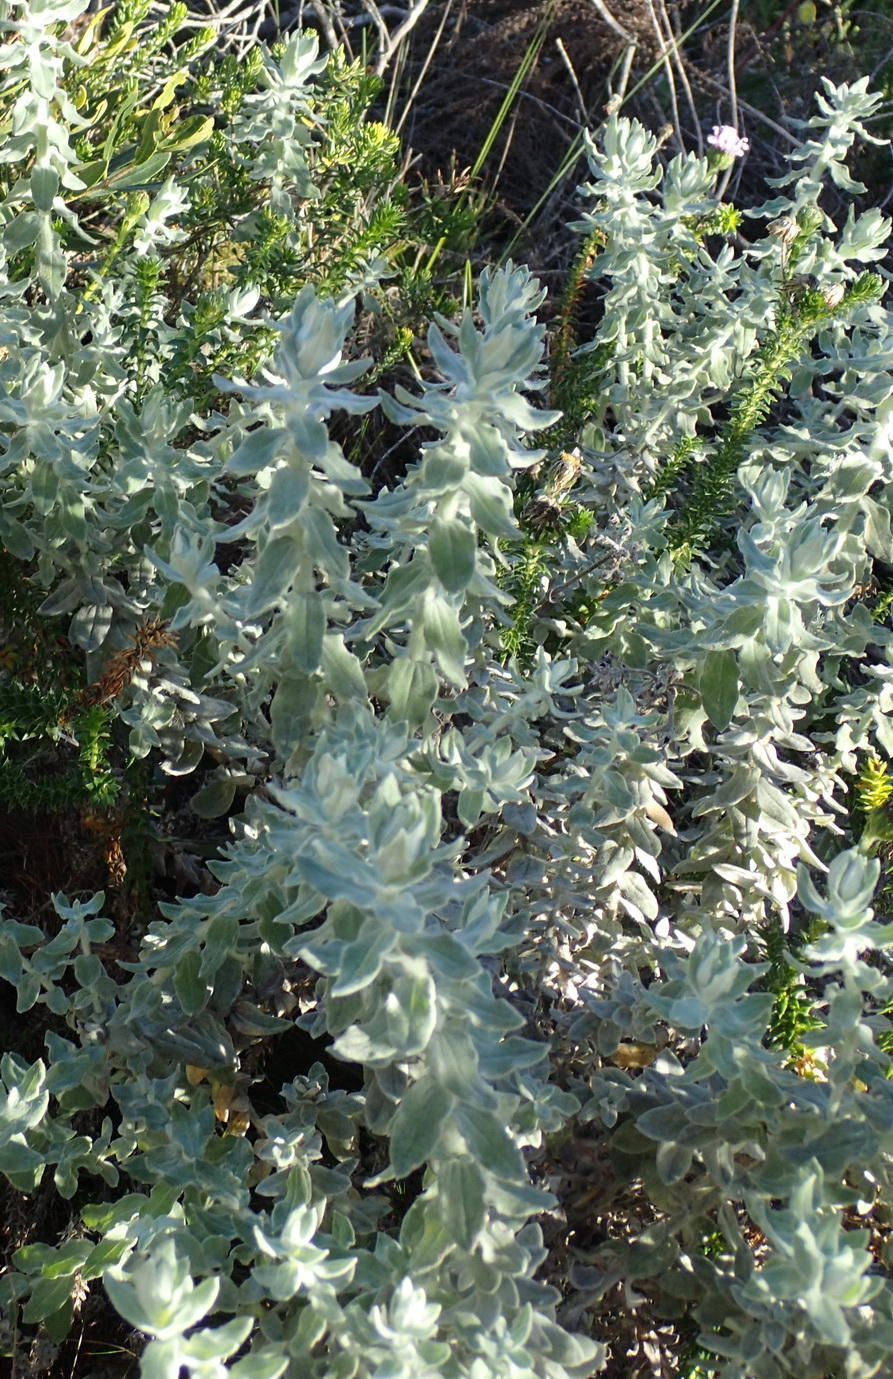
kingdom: Plantae
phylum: Tracheophyta
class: Magnoliopsida
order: Asterales
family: Asteraceae
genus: Helichrysum
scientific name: Helichrysum dasyanthum
